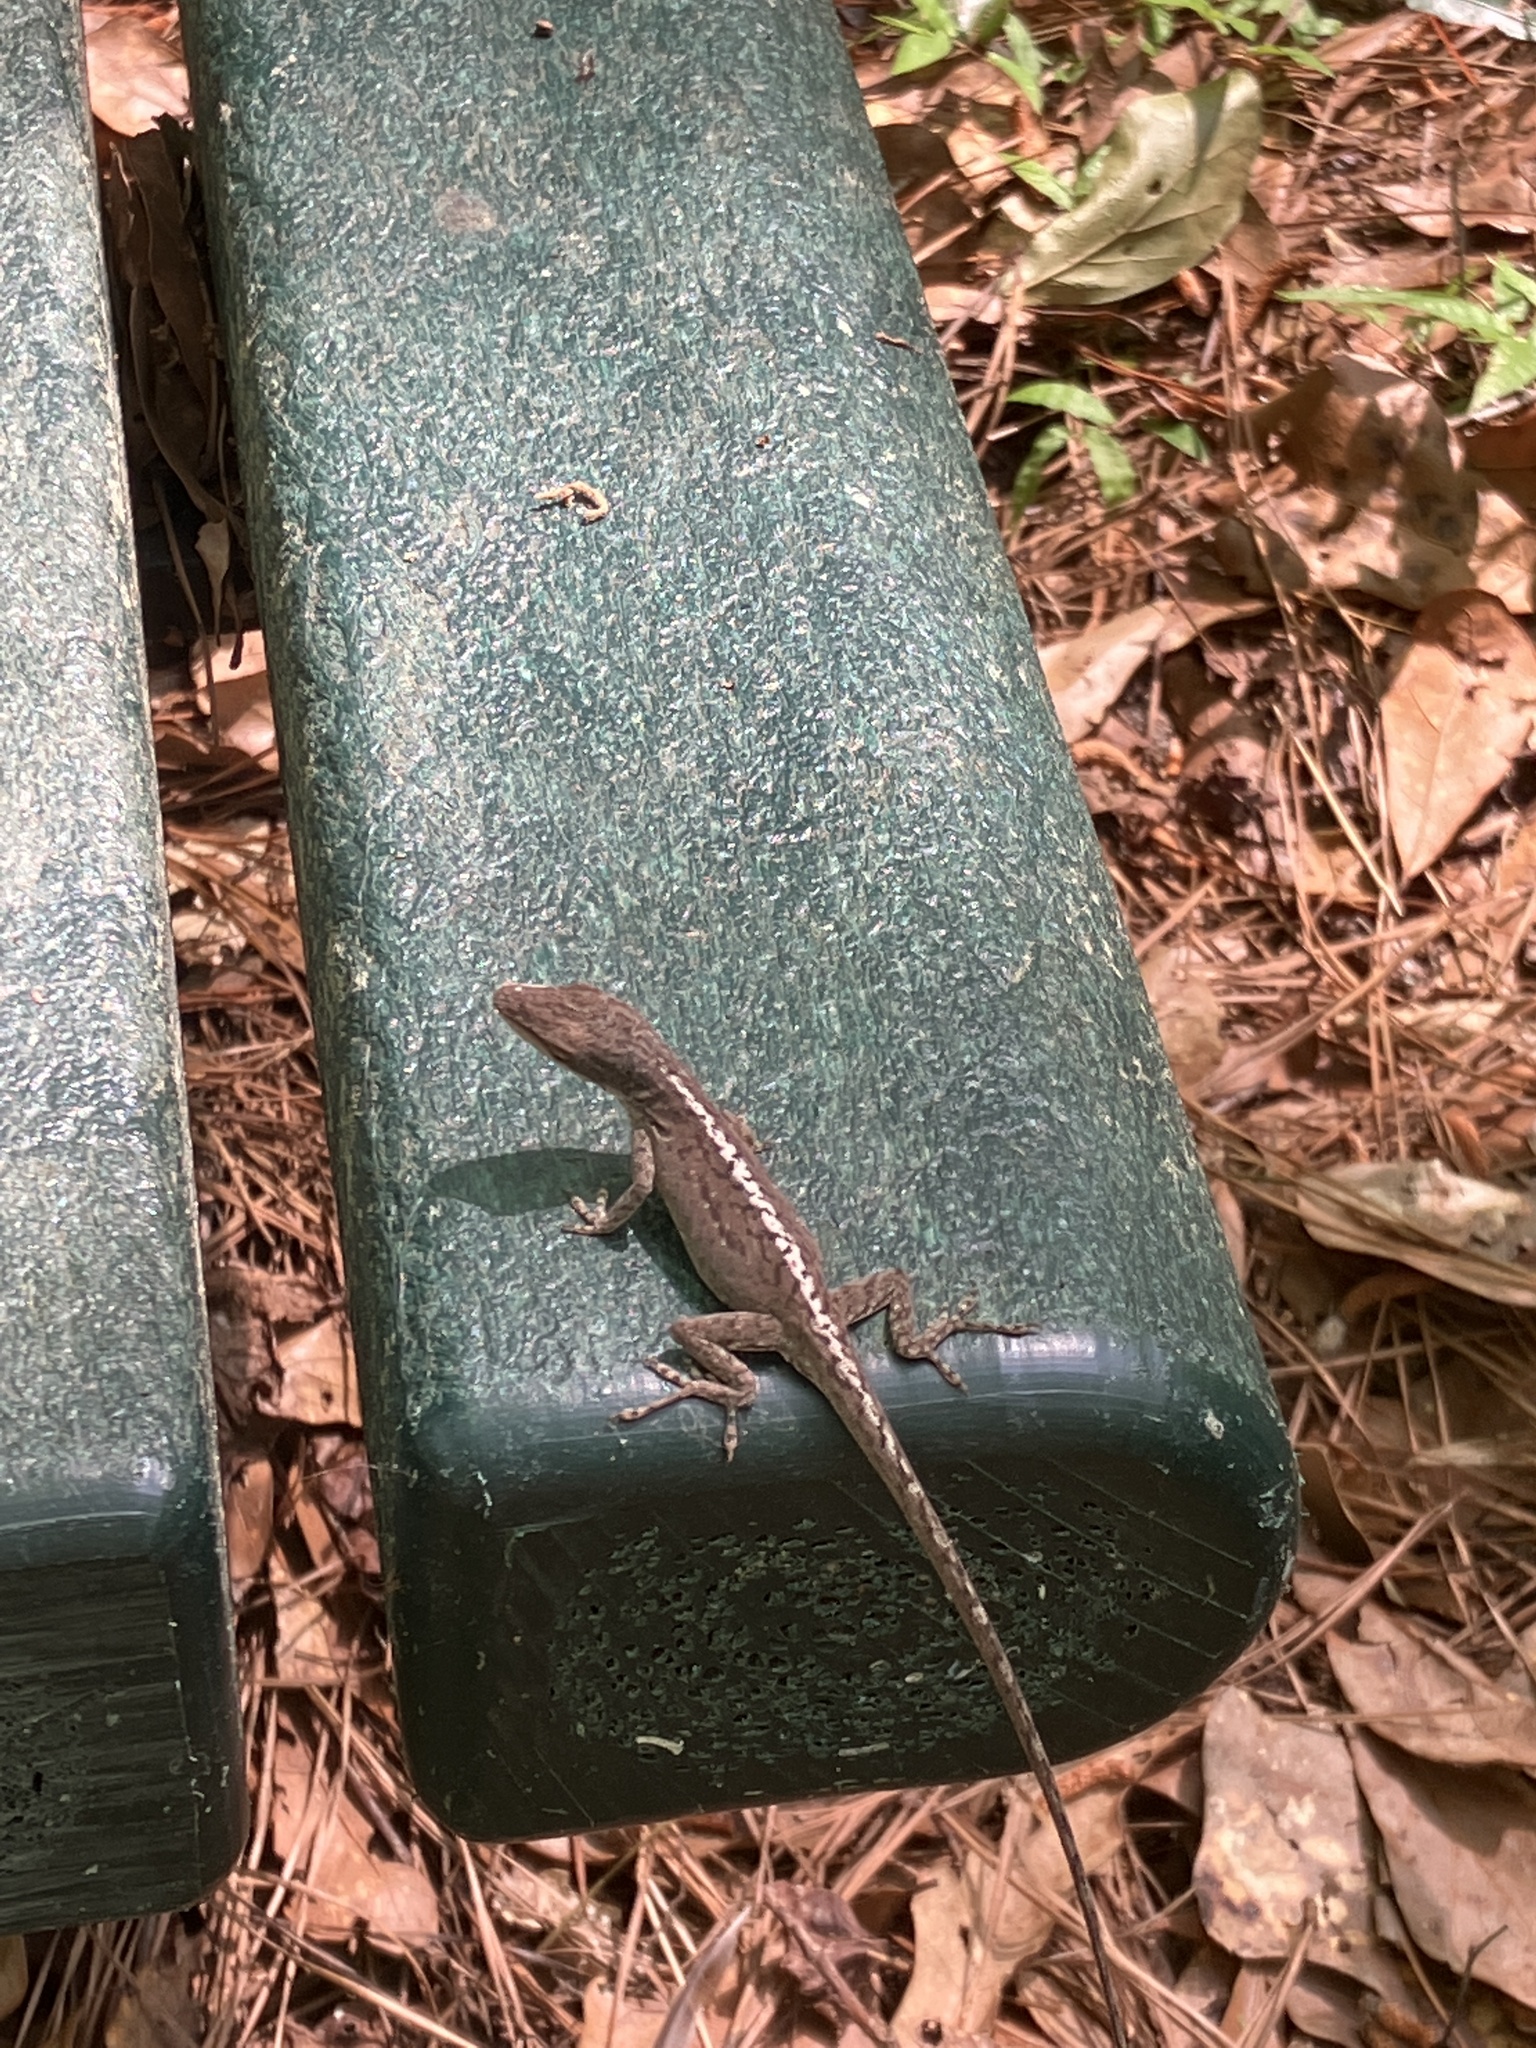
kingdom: Animalia
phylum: Chordata
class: Squamata
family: Dactyloidae
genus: Anolis
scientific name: Anolis carolinensis
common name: Green anole
